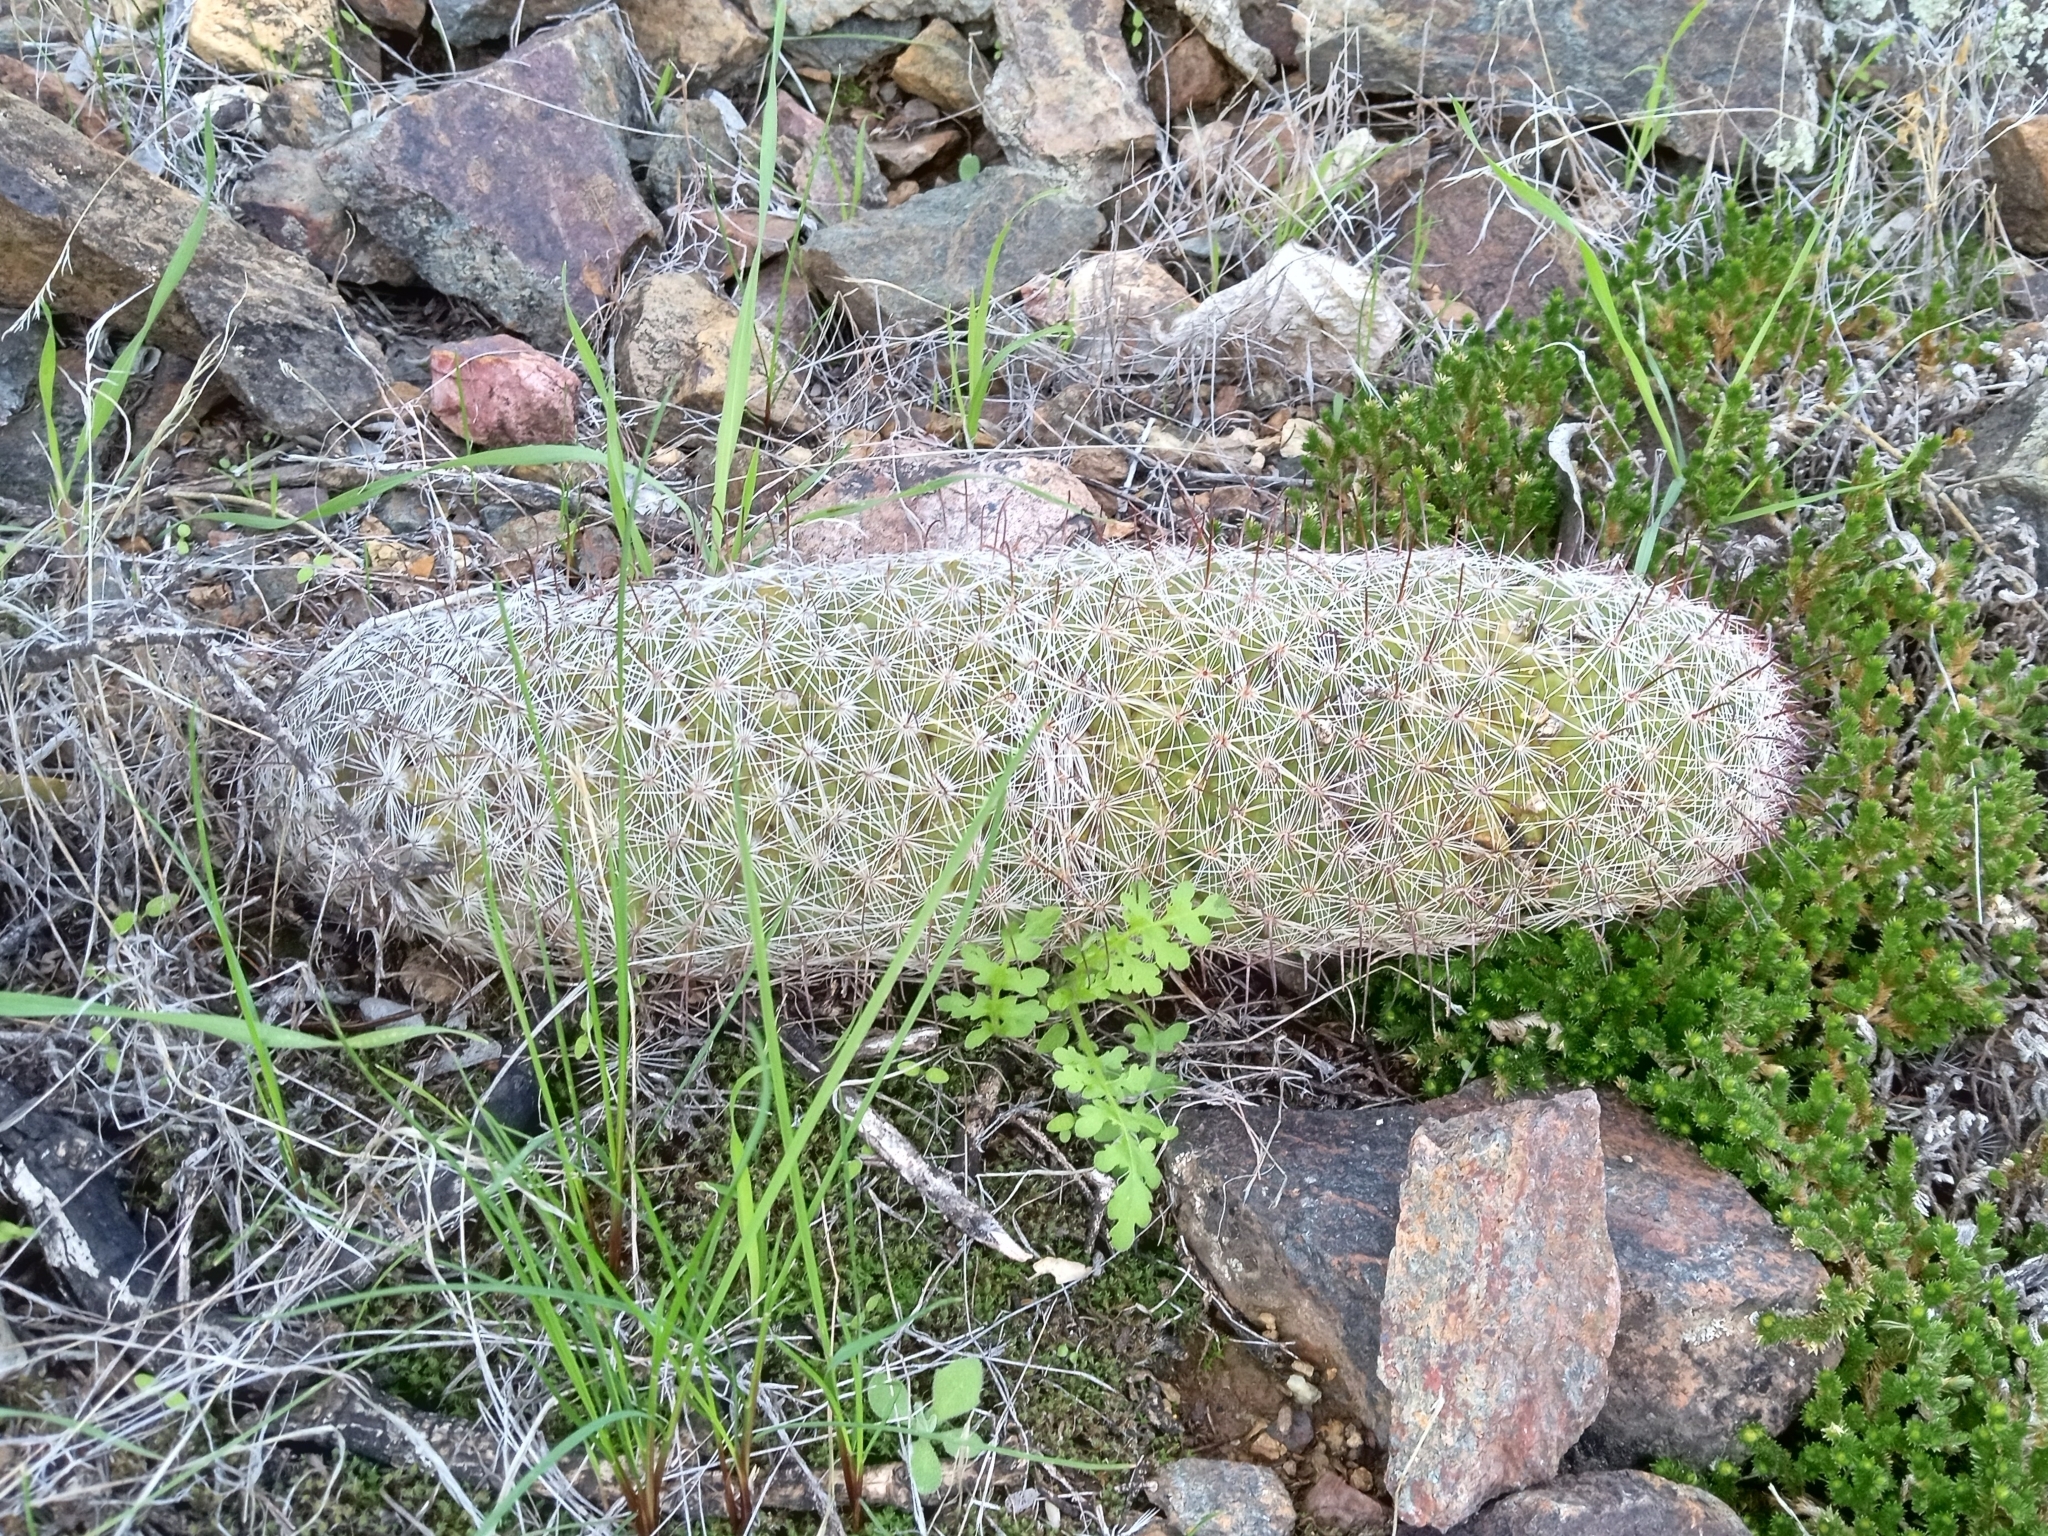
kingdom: Plantae
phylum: Tracheophyta
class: Magnoliopsida
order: Caryophyllales
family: Cactaceae
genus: Cochemiea
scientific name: Cochemiea grahamii
